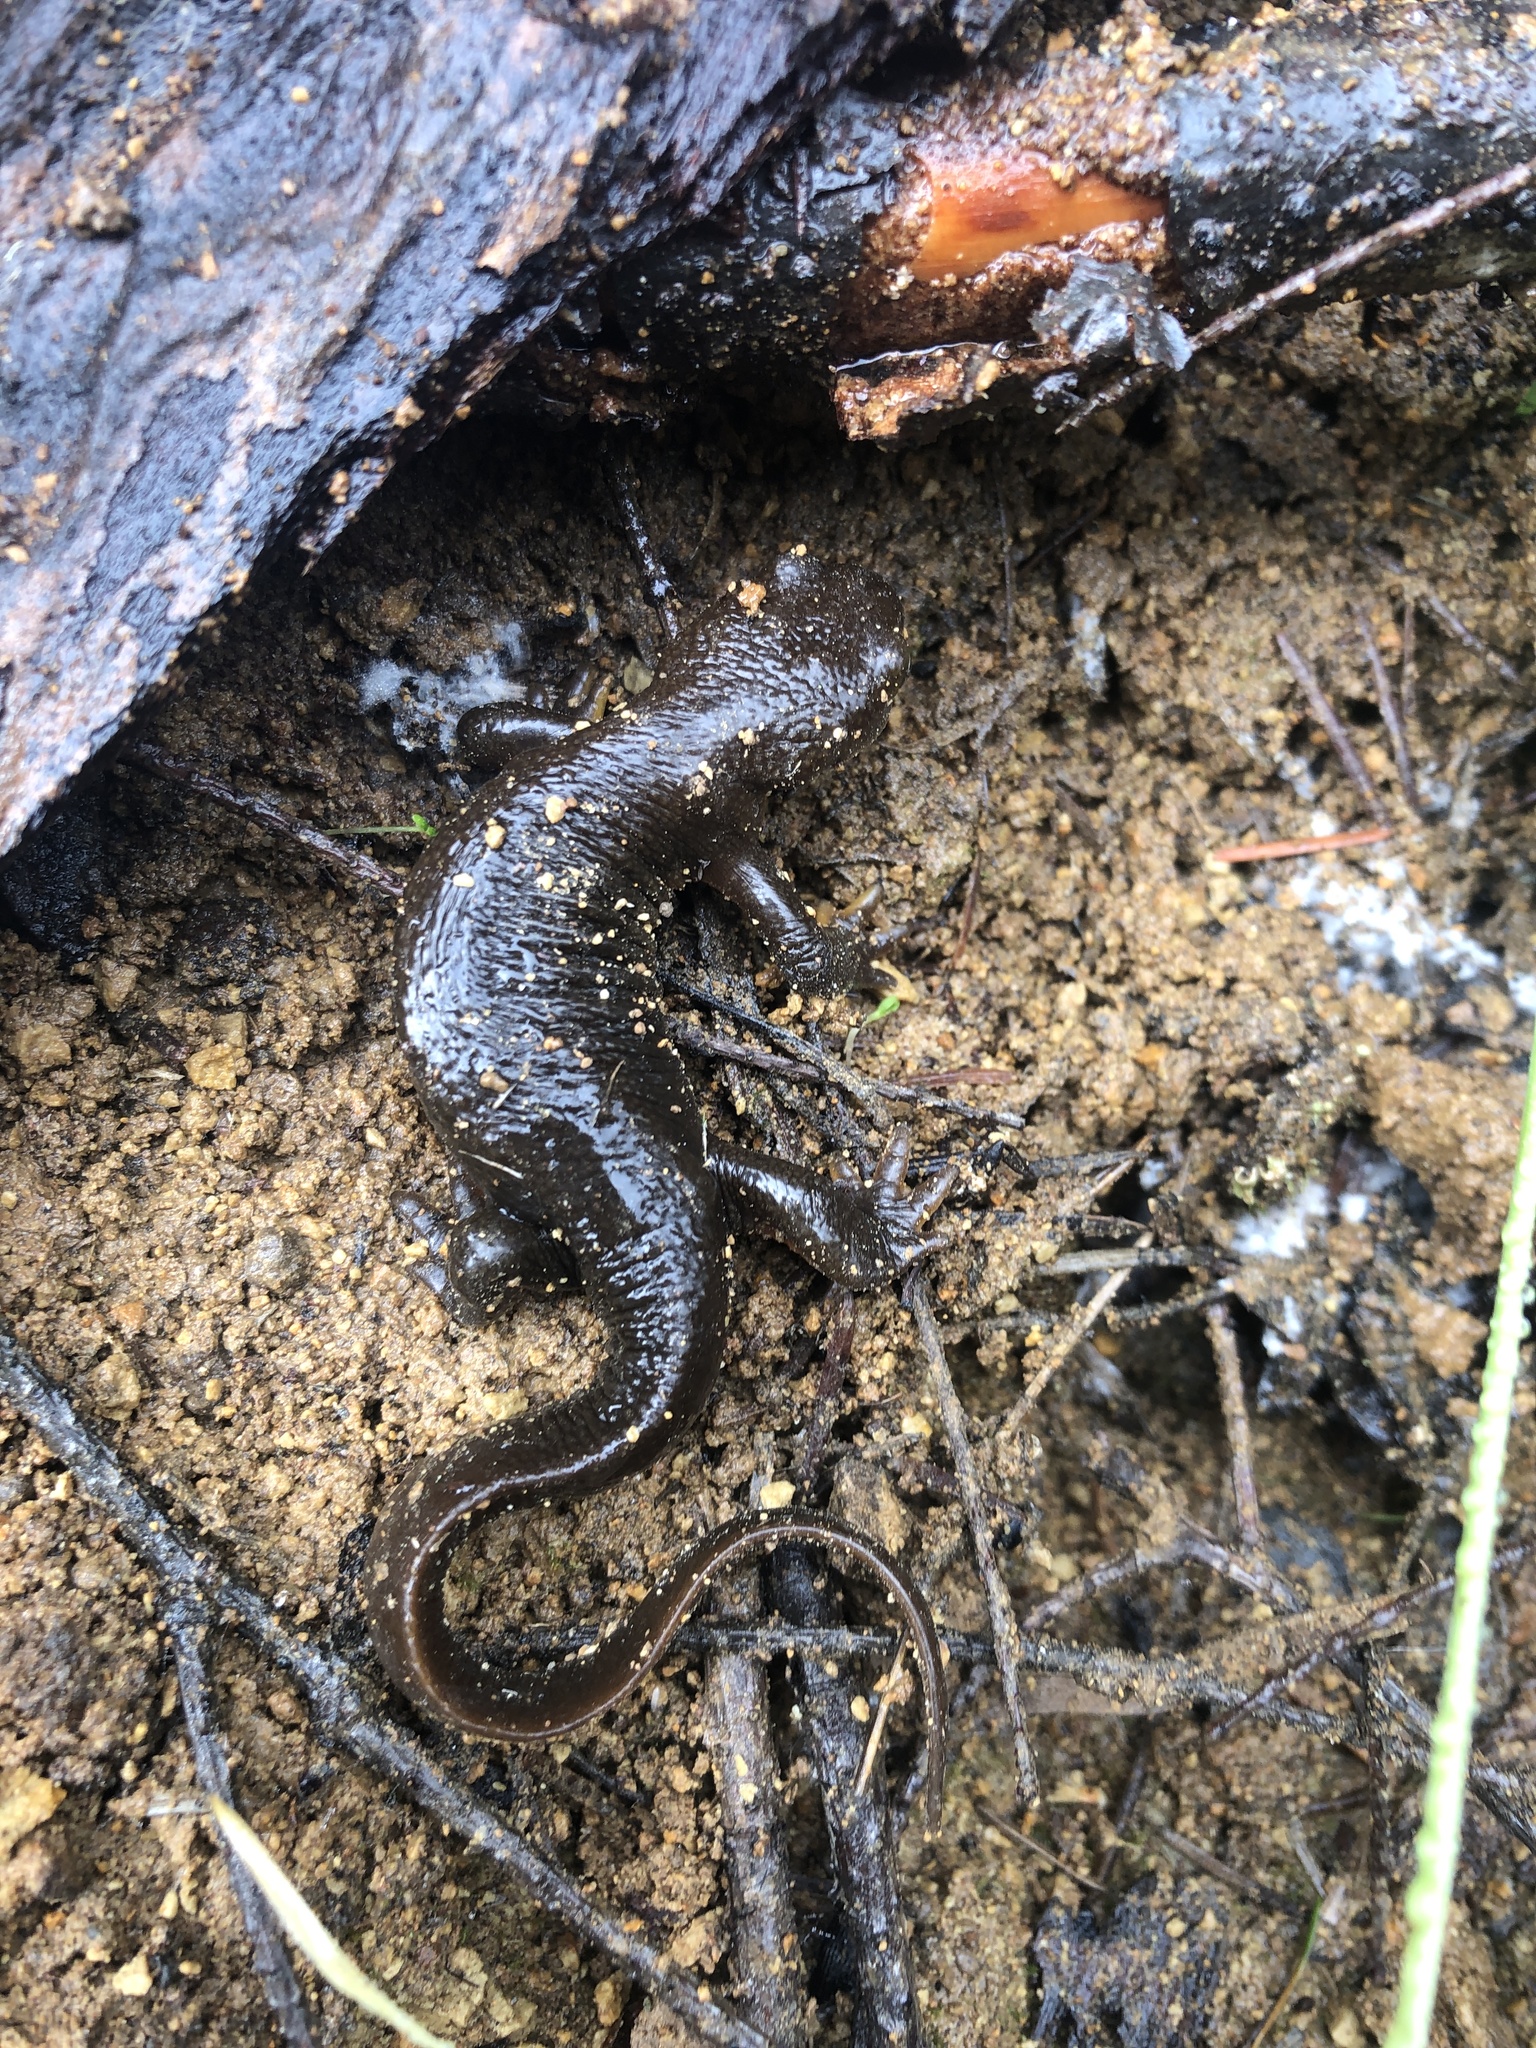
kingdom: Animalia
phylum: Chordata
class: Amphibia
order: Caudata
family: Salamandridae
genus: Taricha
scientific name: Taricha granulosa
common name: Roughskin newt
